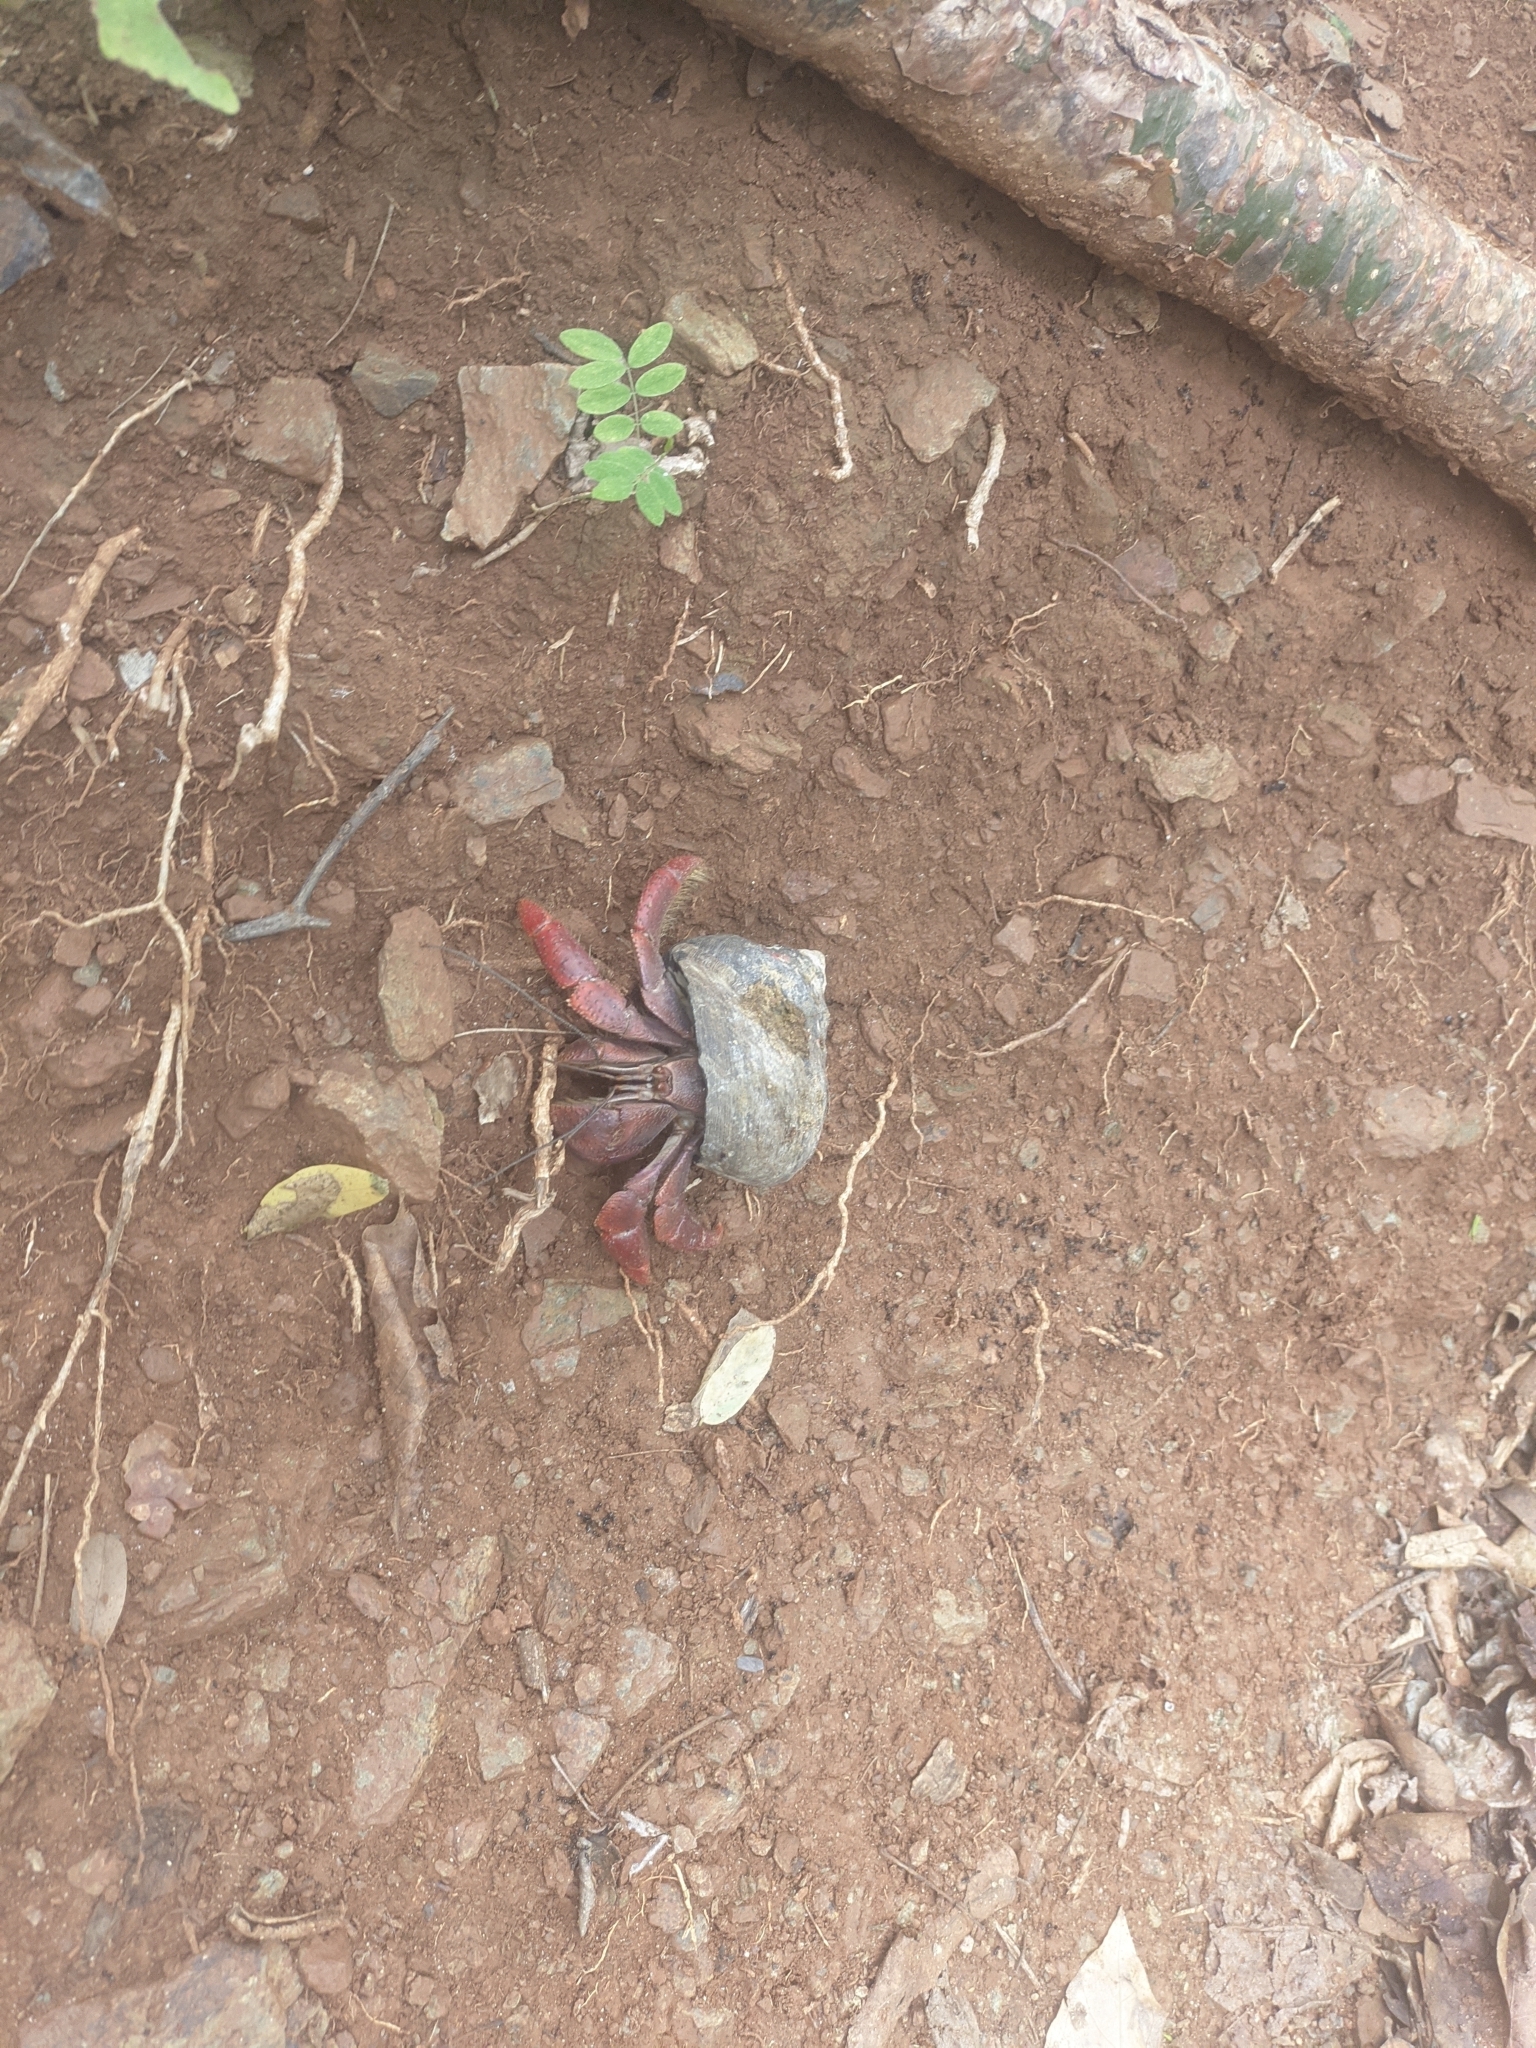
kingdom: Animalia
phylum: Arthropoda
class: Malacostraca
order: Decapoda
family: Coenobitidae
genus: Coenobita
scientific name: Coenobita clypeatus
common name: Caribbean hermit crab
